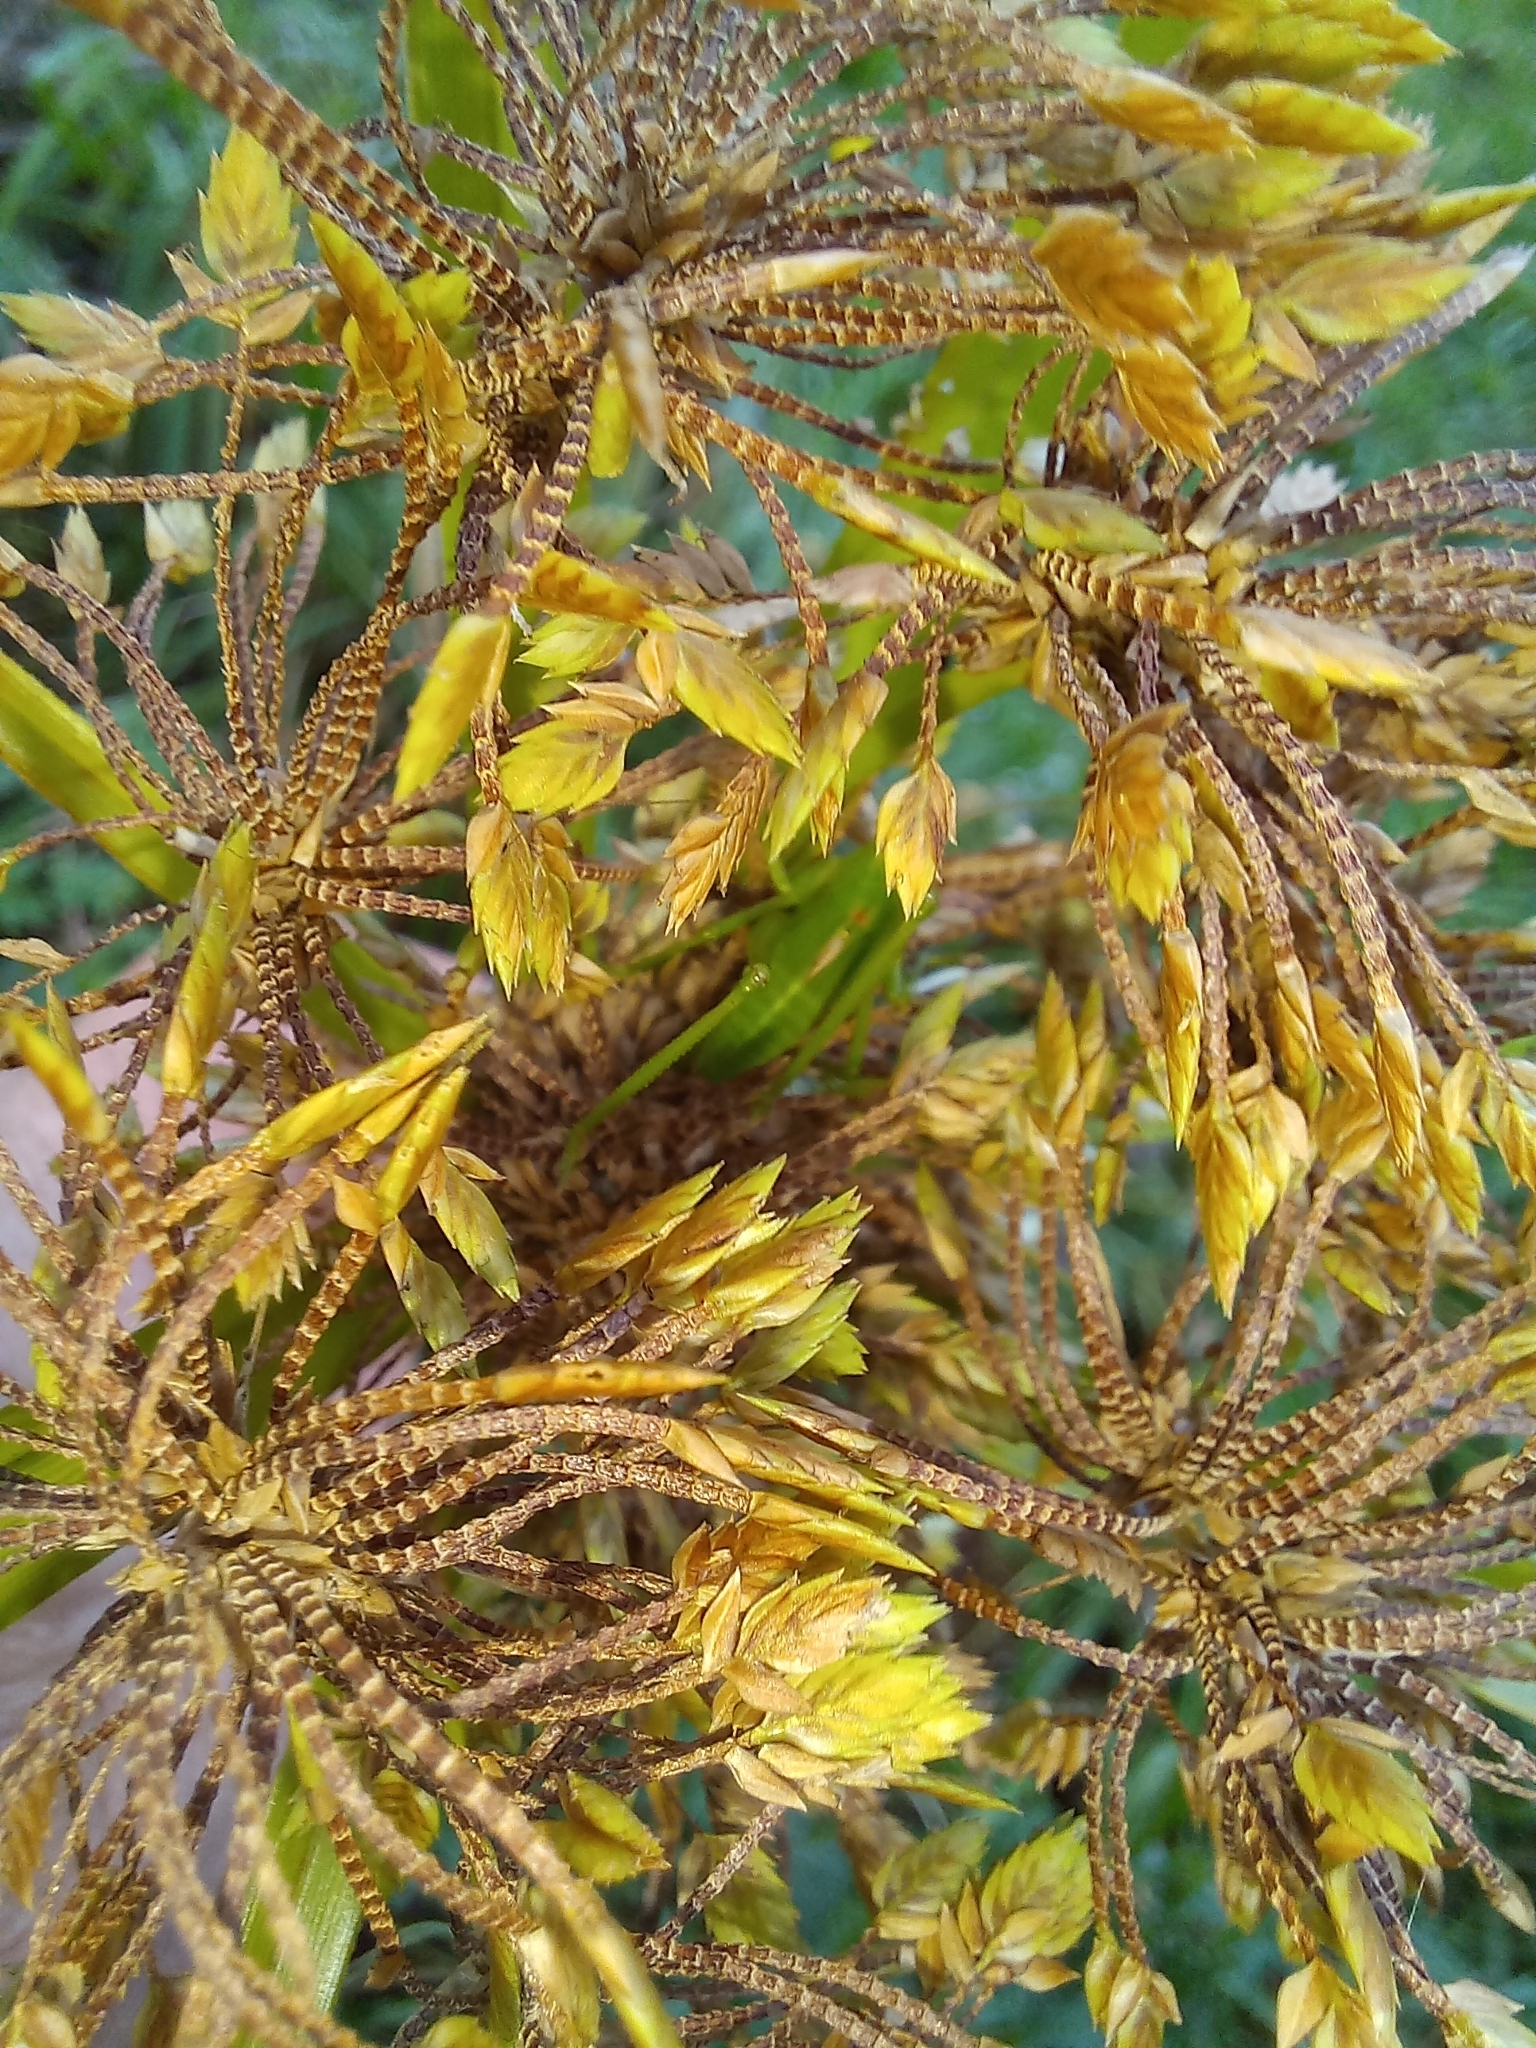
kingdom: Plantae
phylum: Tracheophyta
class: Liliopsida
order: Poales
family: Cyperaceae
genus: Cyperus
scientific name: Cyperus eragrostis
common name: Tall flatsedge
